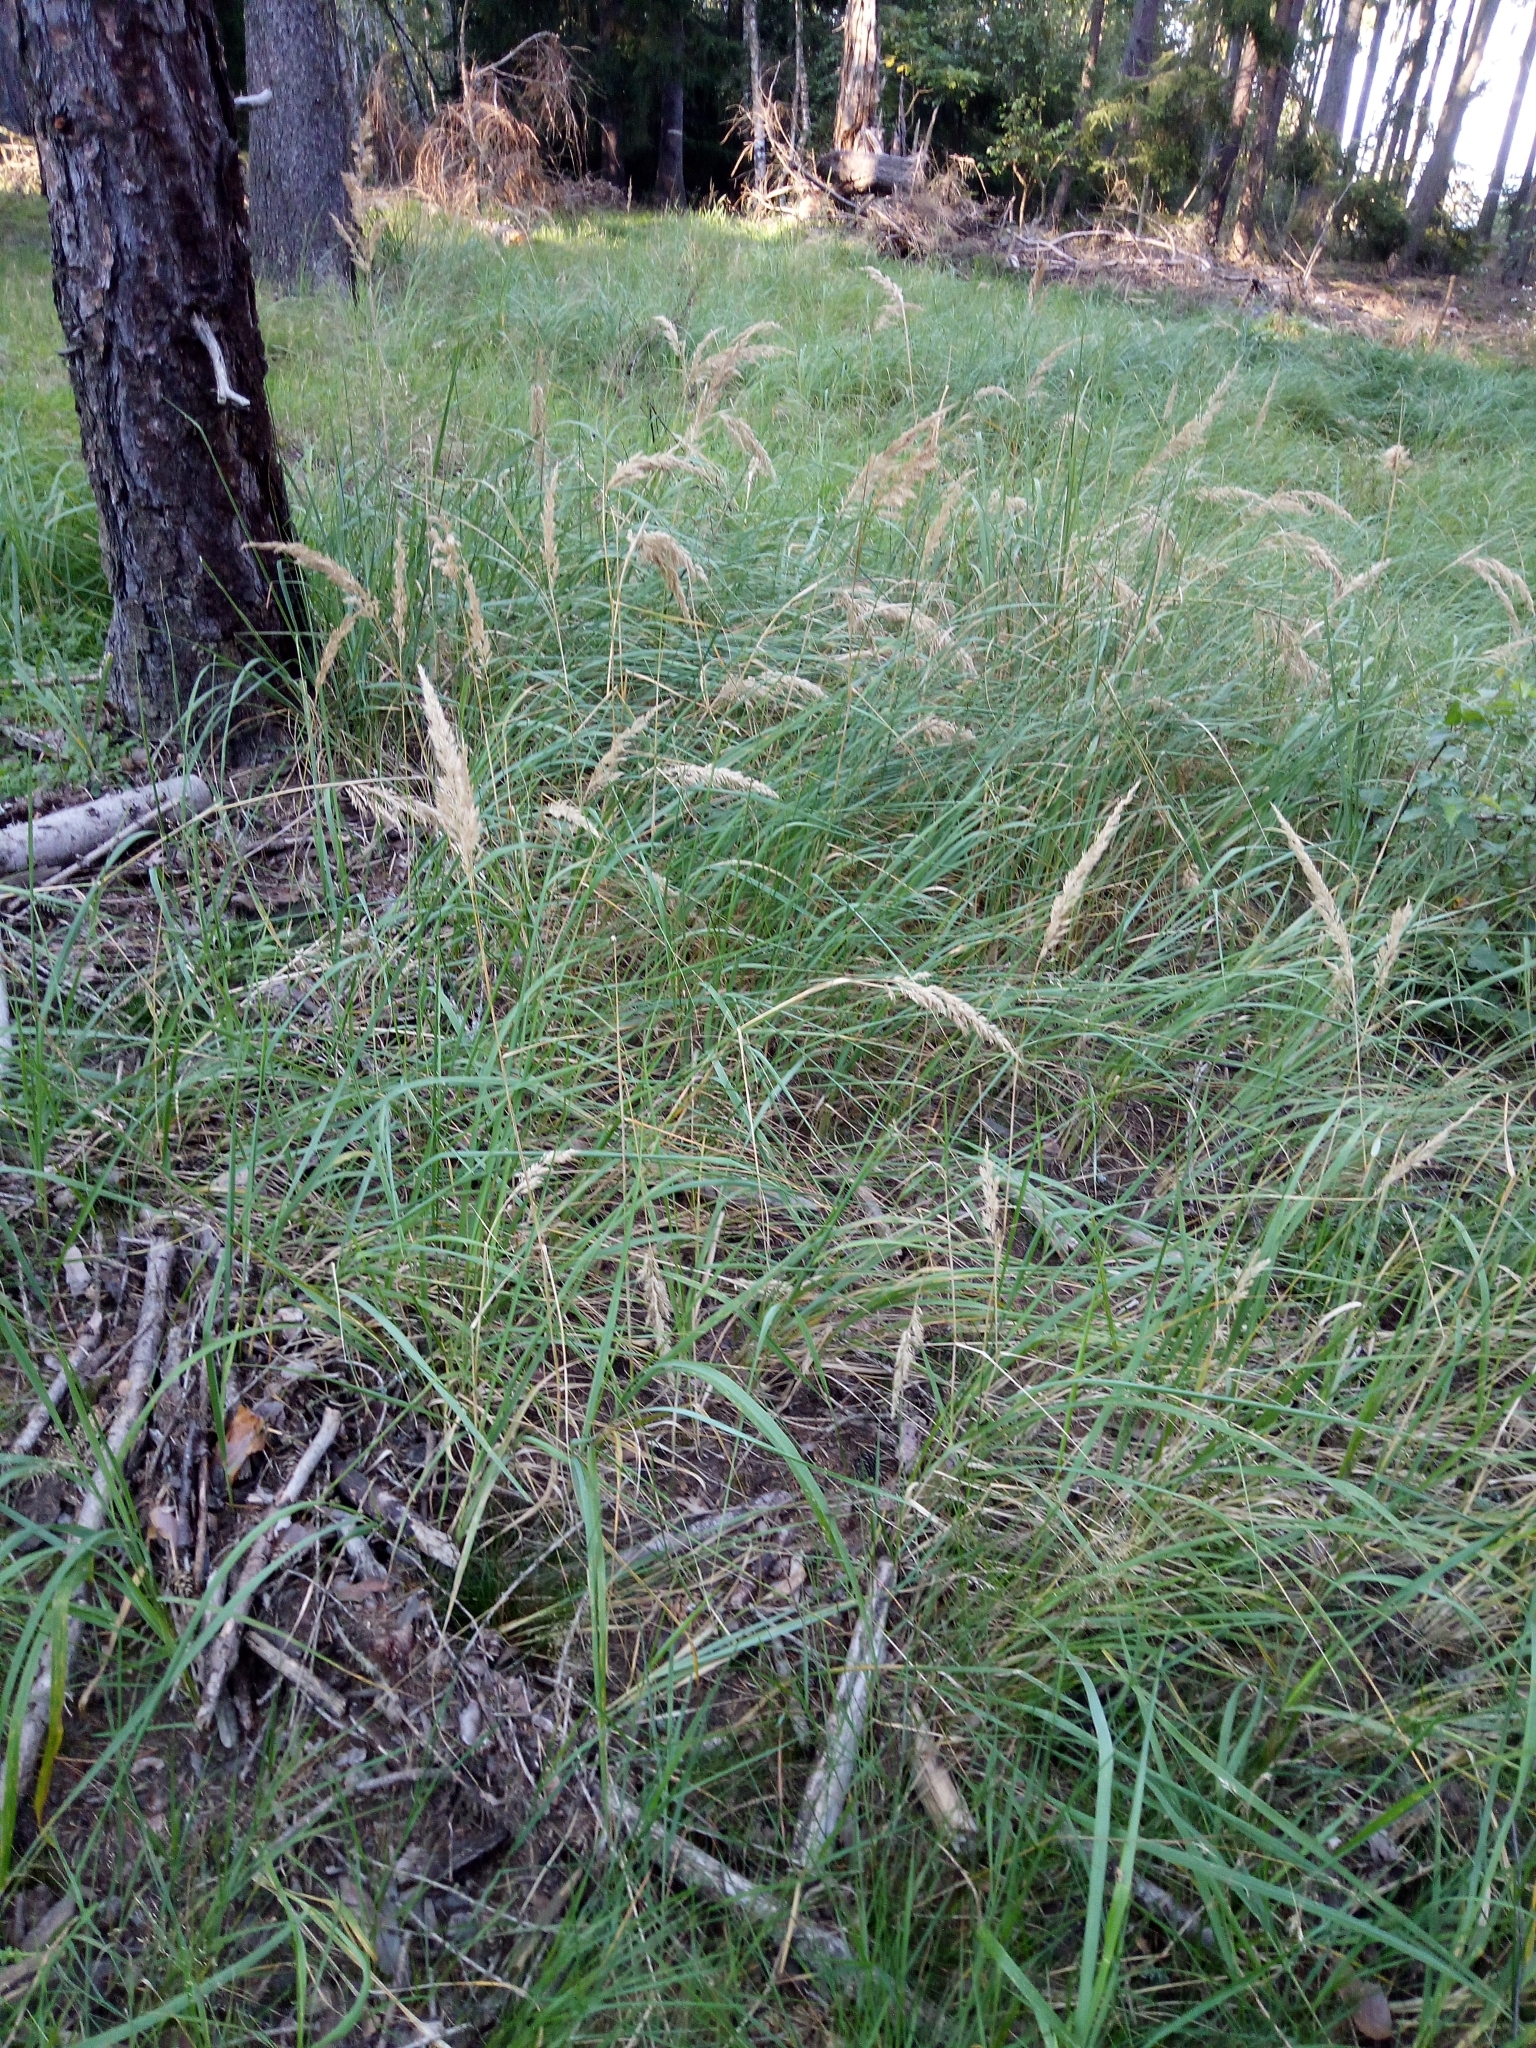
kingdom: Plantae
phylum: Tracheophyta
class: Liliopsida
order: Poales
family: Poaceae
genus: Calamagrostis
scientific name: Calamagrostis epigejos
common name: Wood small-reed
